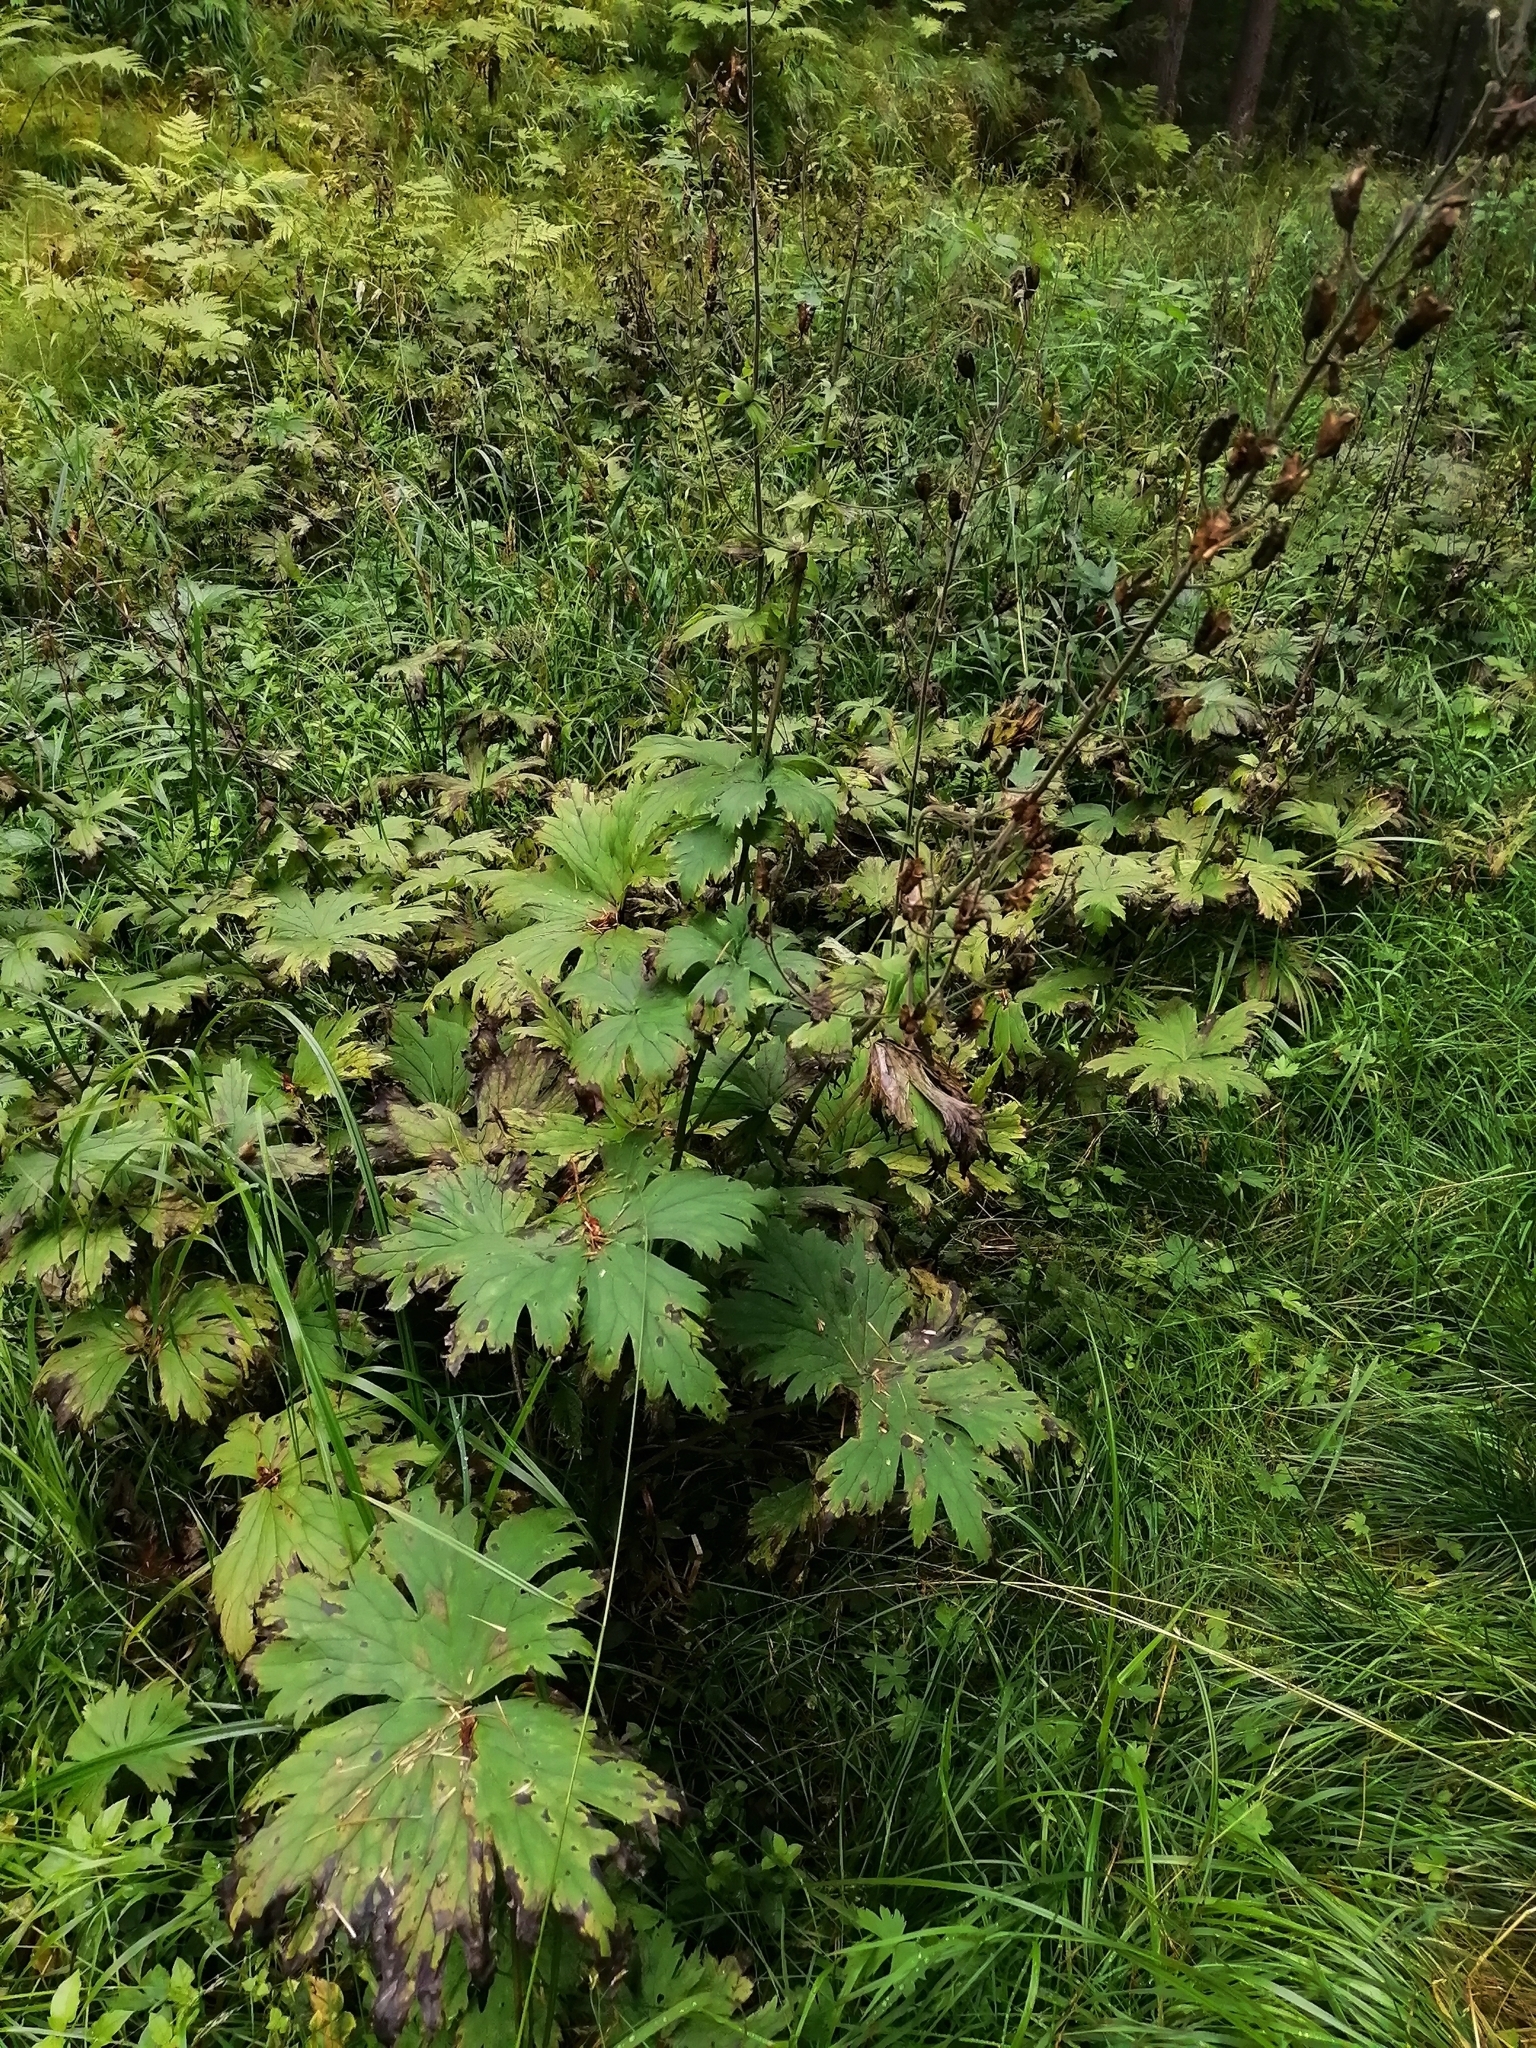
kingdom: Plantae
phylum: Tracheophyta
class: Magnoliopsida
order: Ranunculales
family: Ranunculaceae
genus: Aconitum
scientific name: Aconitum septentrionale
